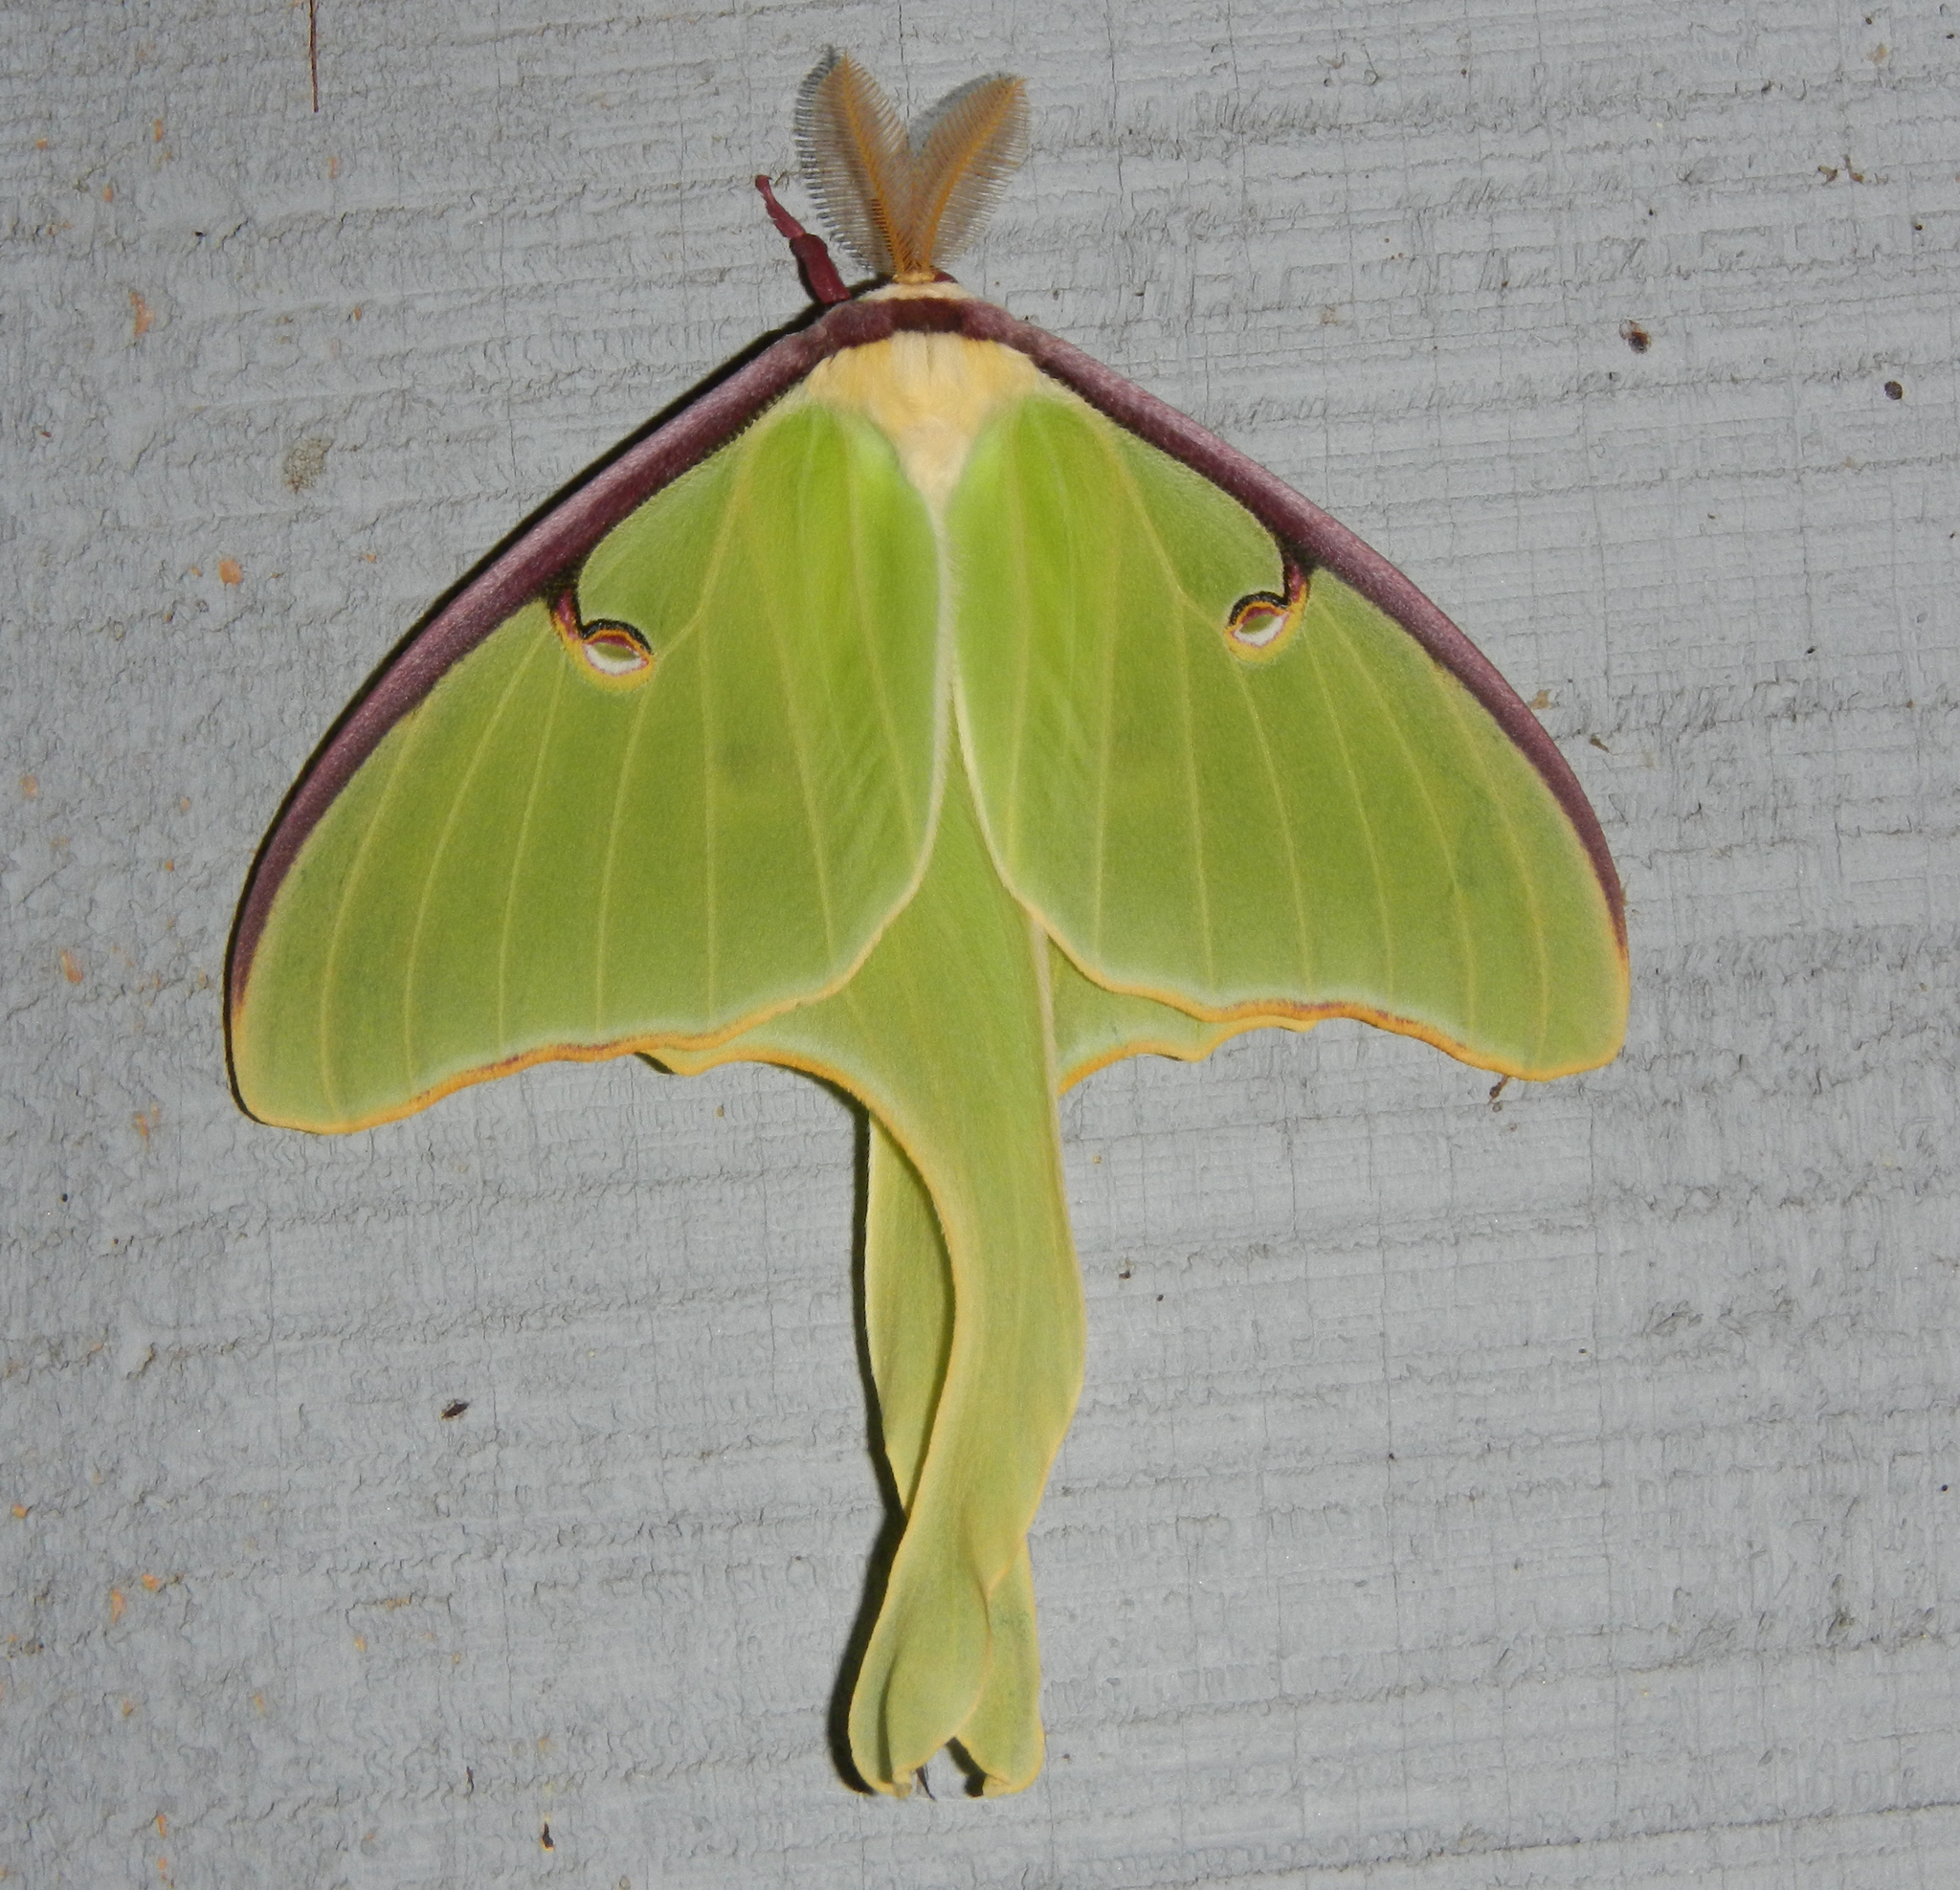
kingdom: Animalia
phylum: Arthropoda
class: Insecta
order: Lepidoptera
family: Saturniidae
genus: Actias
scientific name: Actias luna
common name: Luna moth
